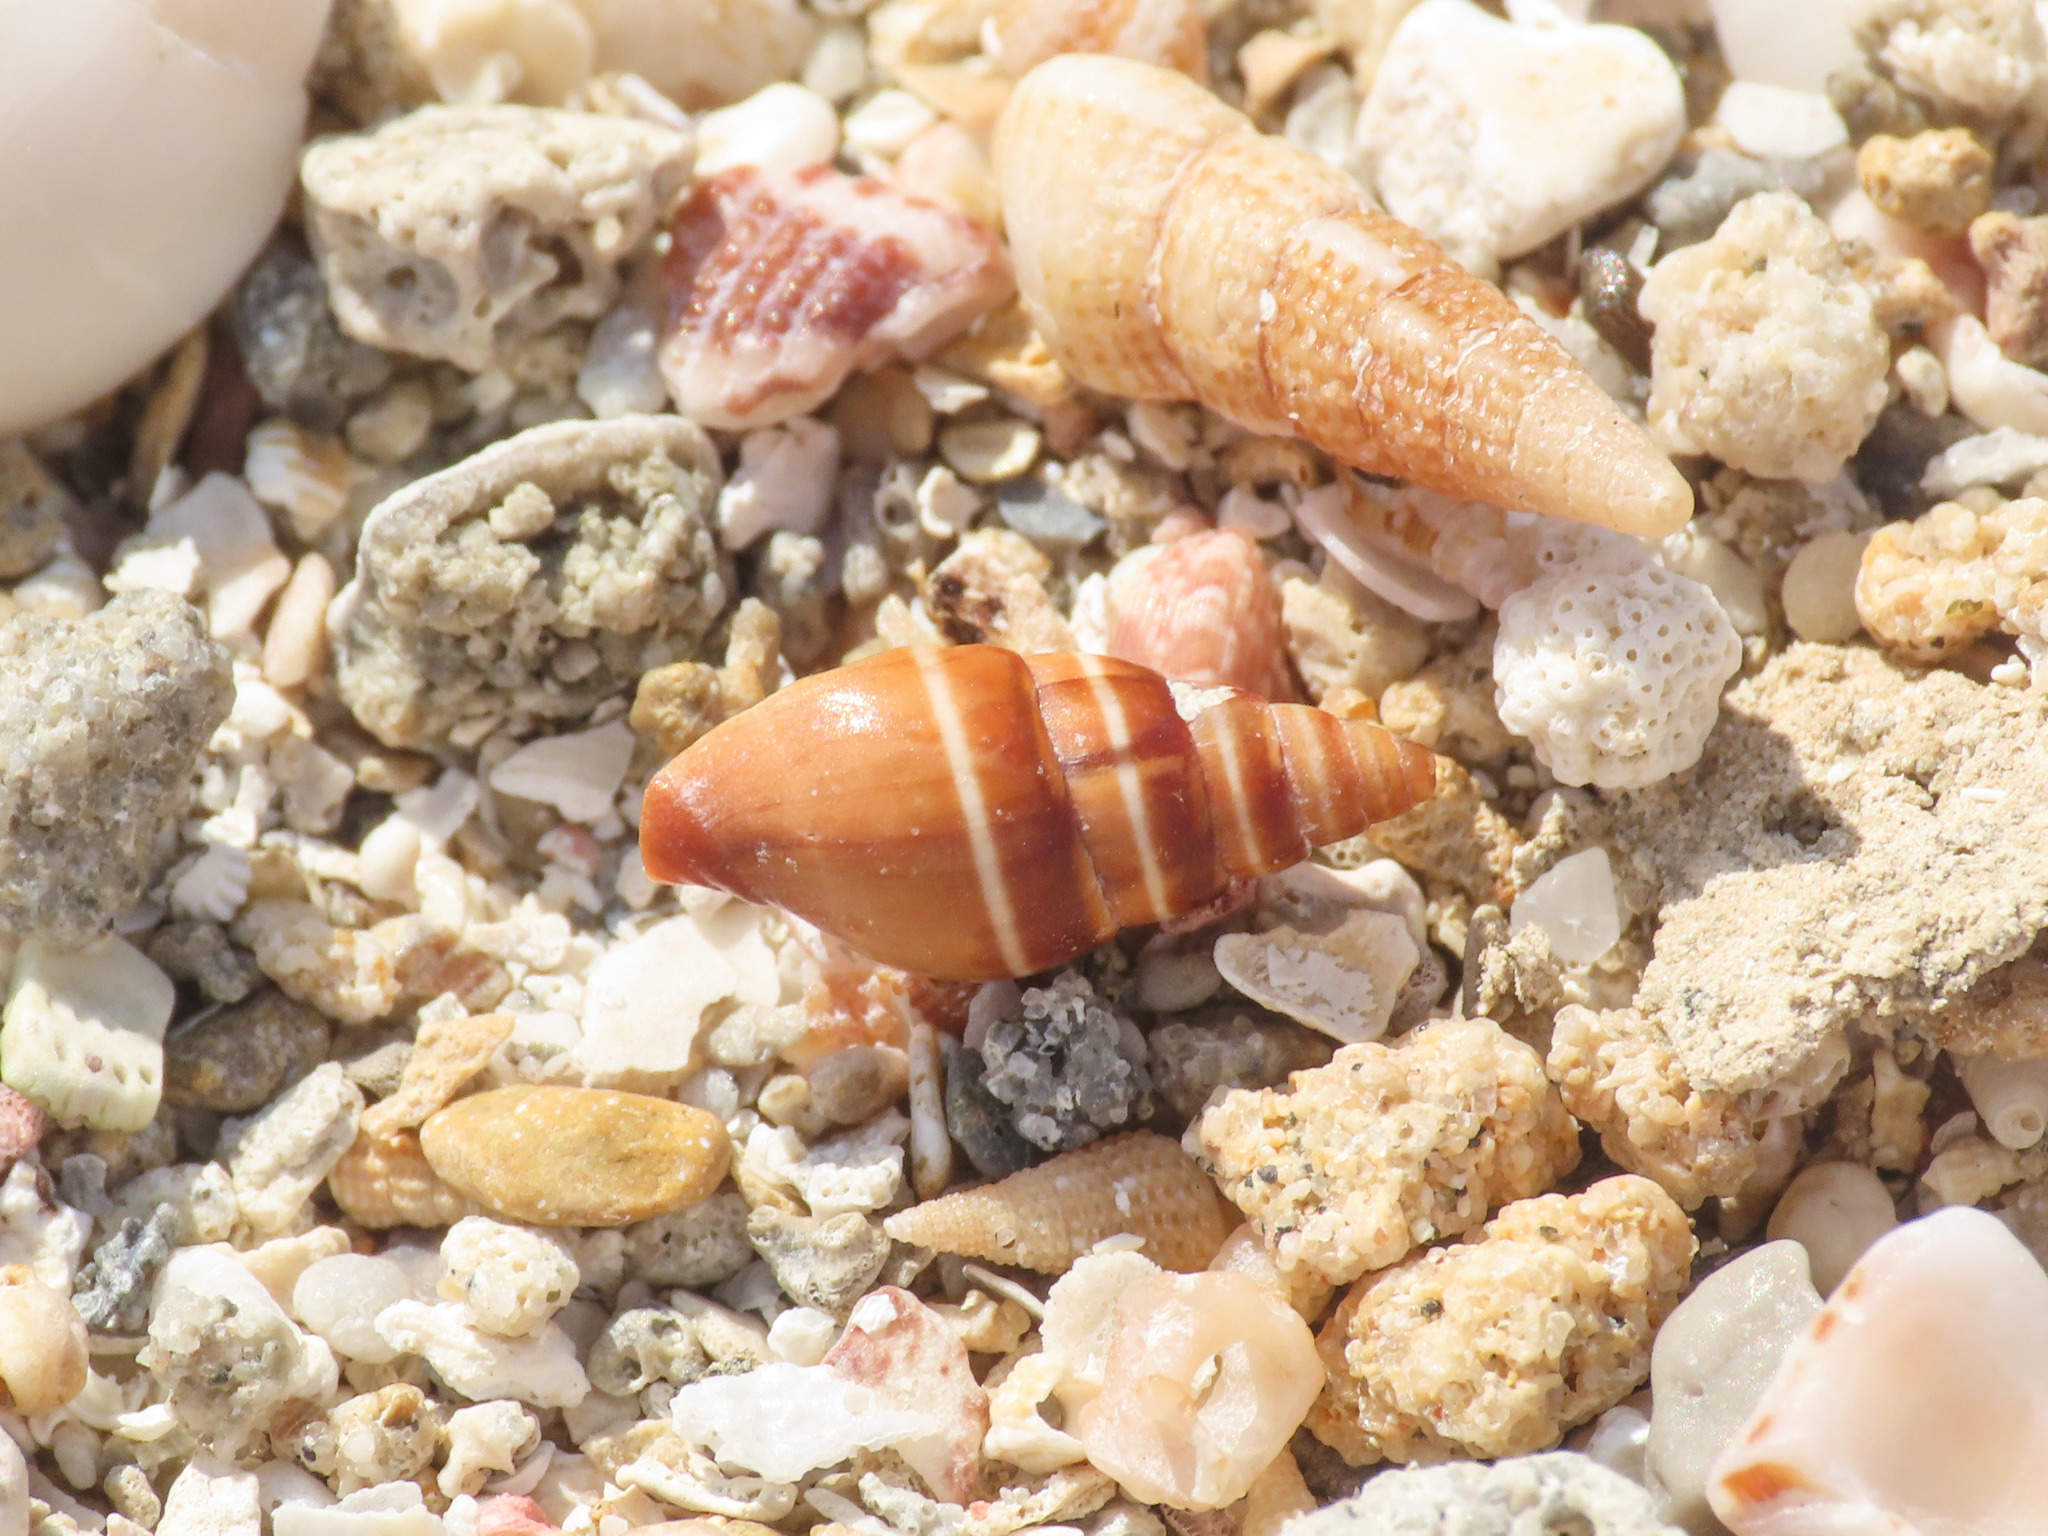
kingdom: Animalia
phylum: Mollusca
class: Gastropoda
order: Neogastropoda
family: Costellariidae
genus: Pusia
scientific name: Pusia ebenus
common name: Brown mitre
